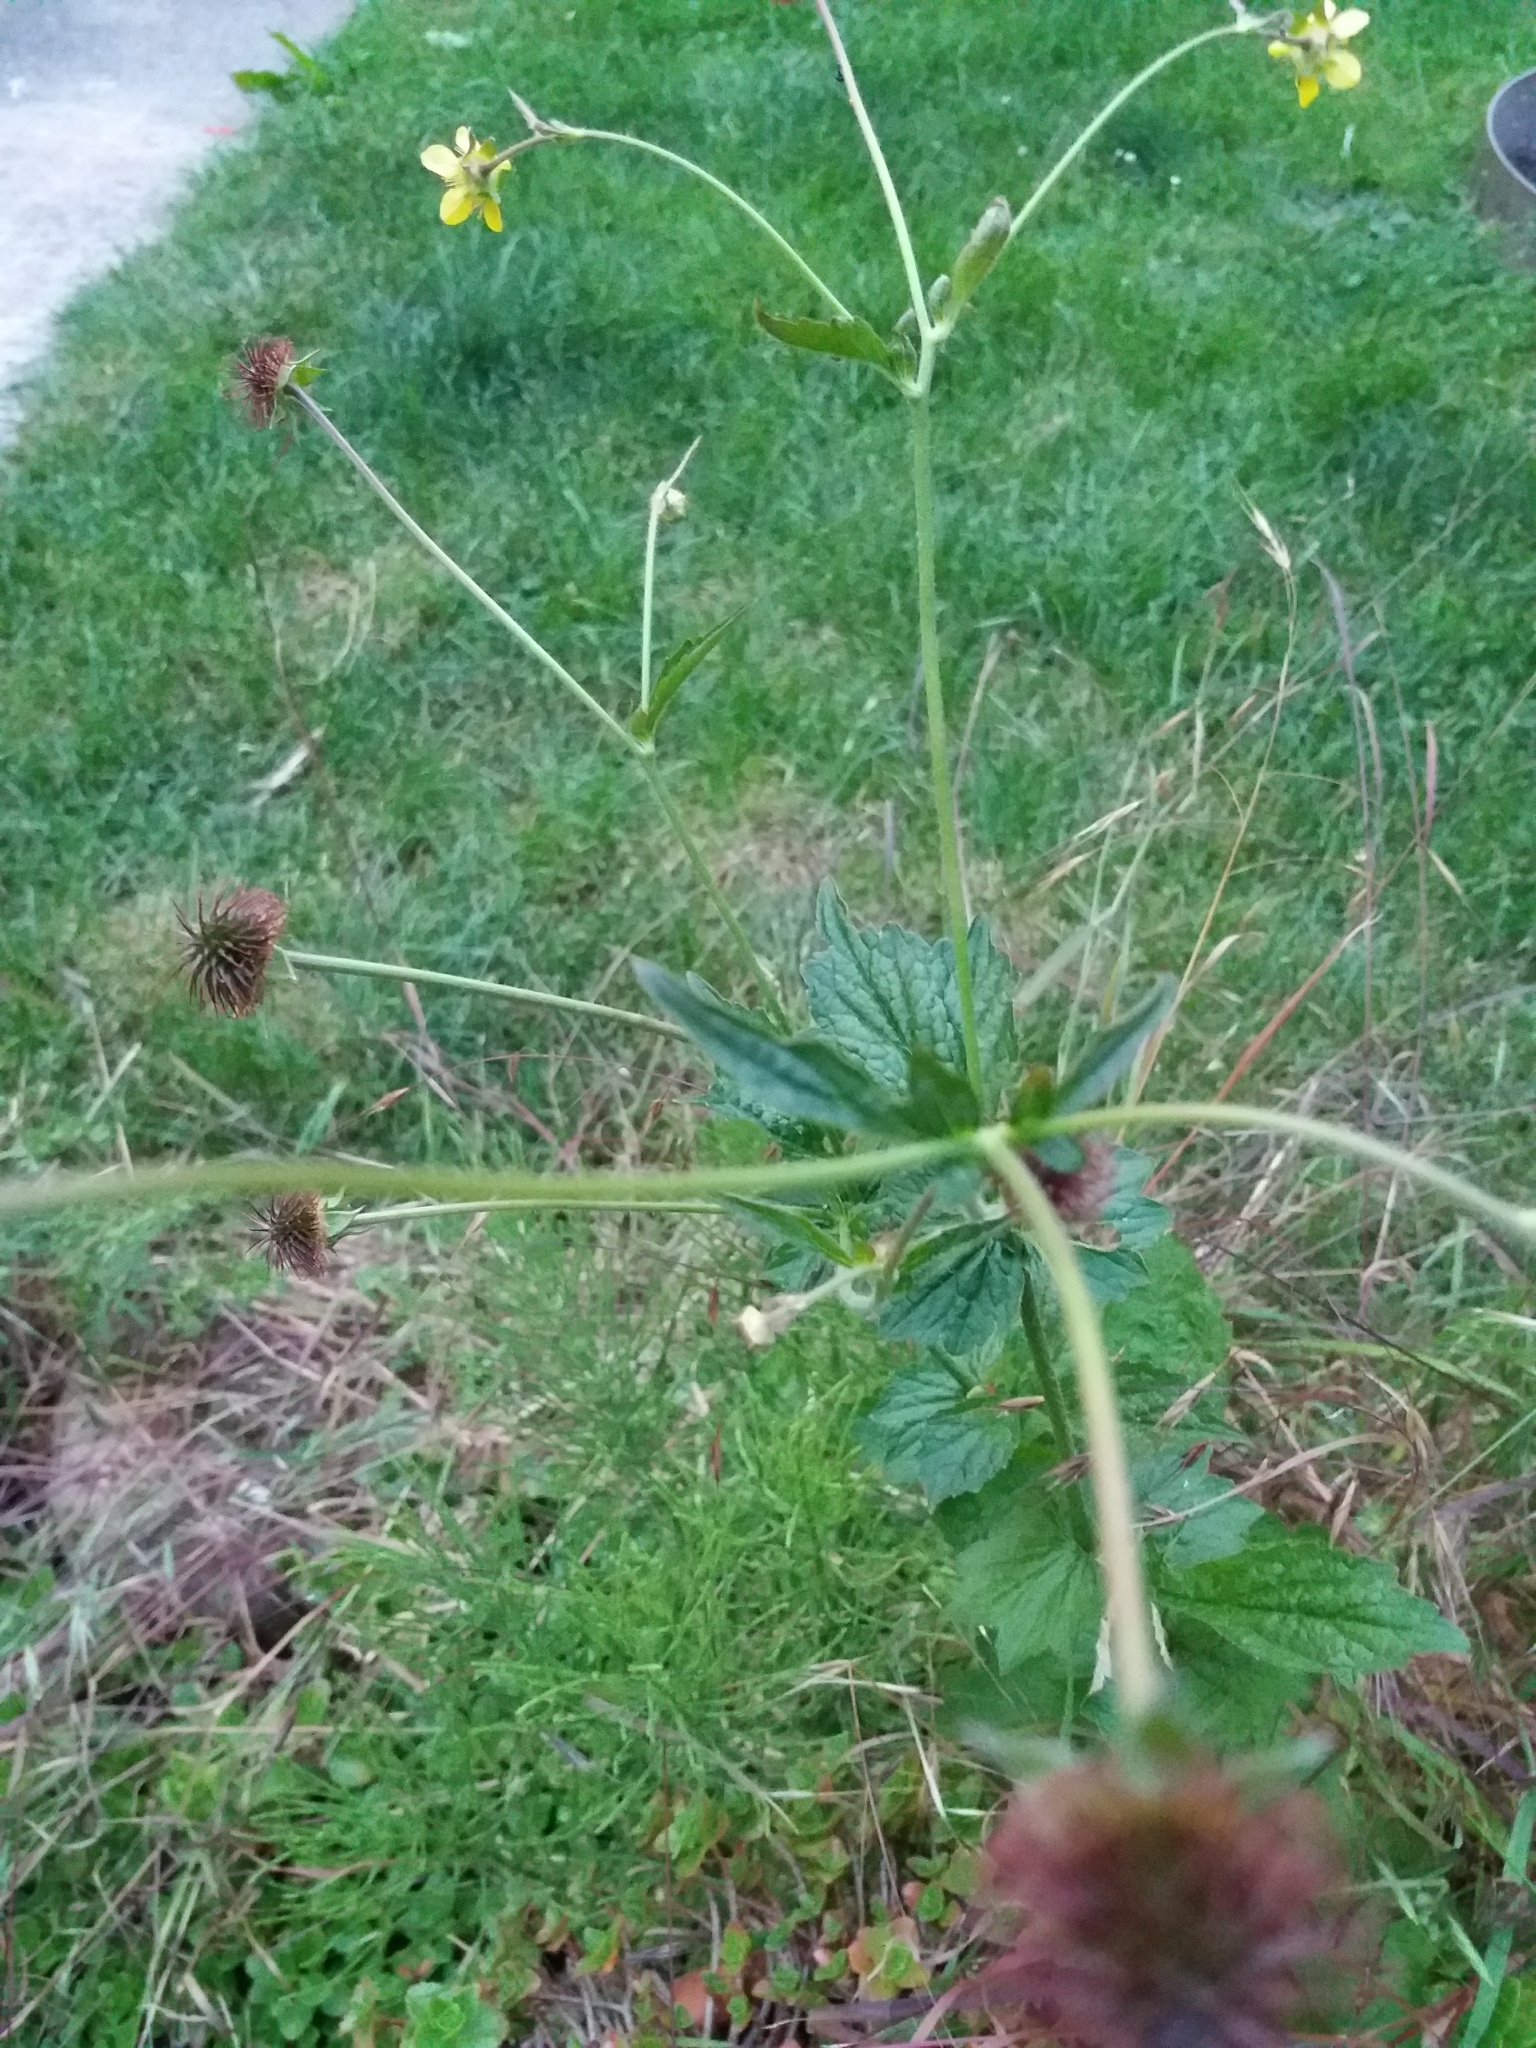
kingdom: Plantae
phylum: Tracheophyta
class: Magnoliopsida
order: Rosales
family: Rosaceae
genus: Geum
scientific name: Geum urbanum
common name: Wood avens
